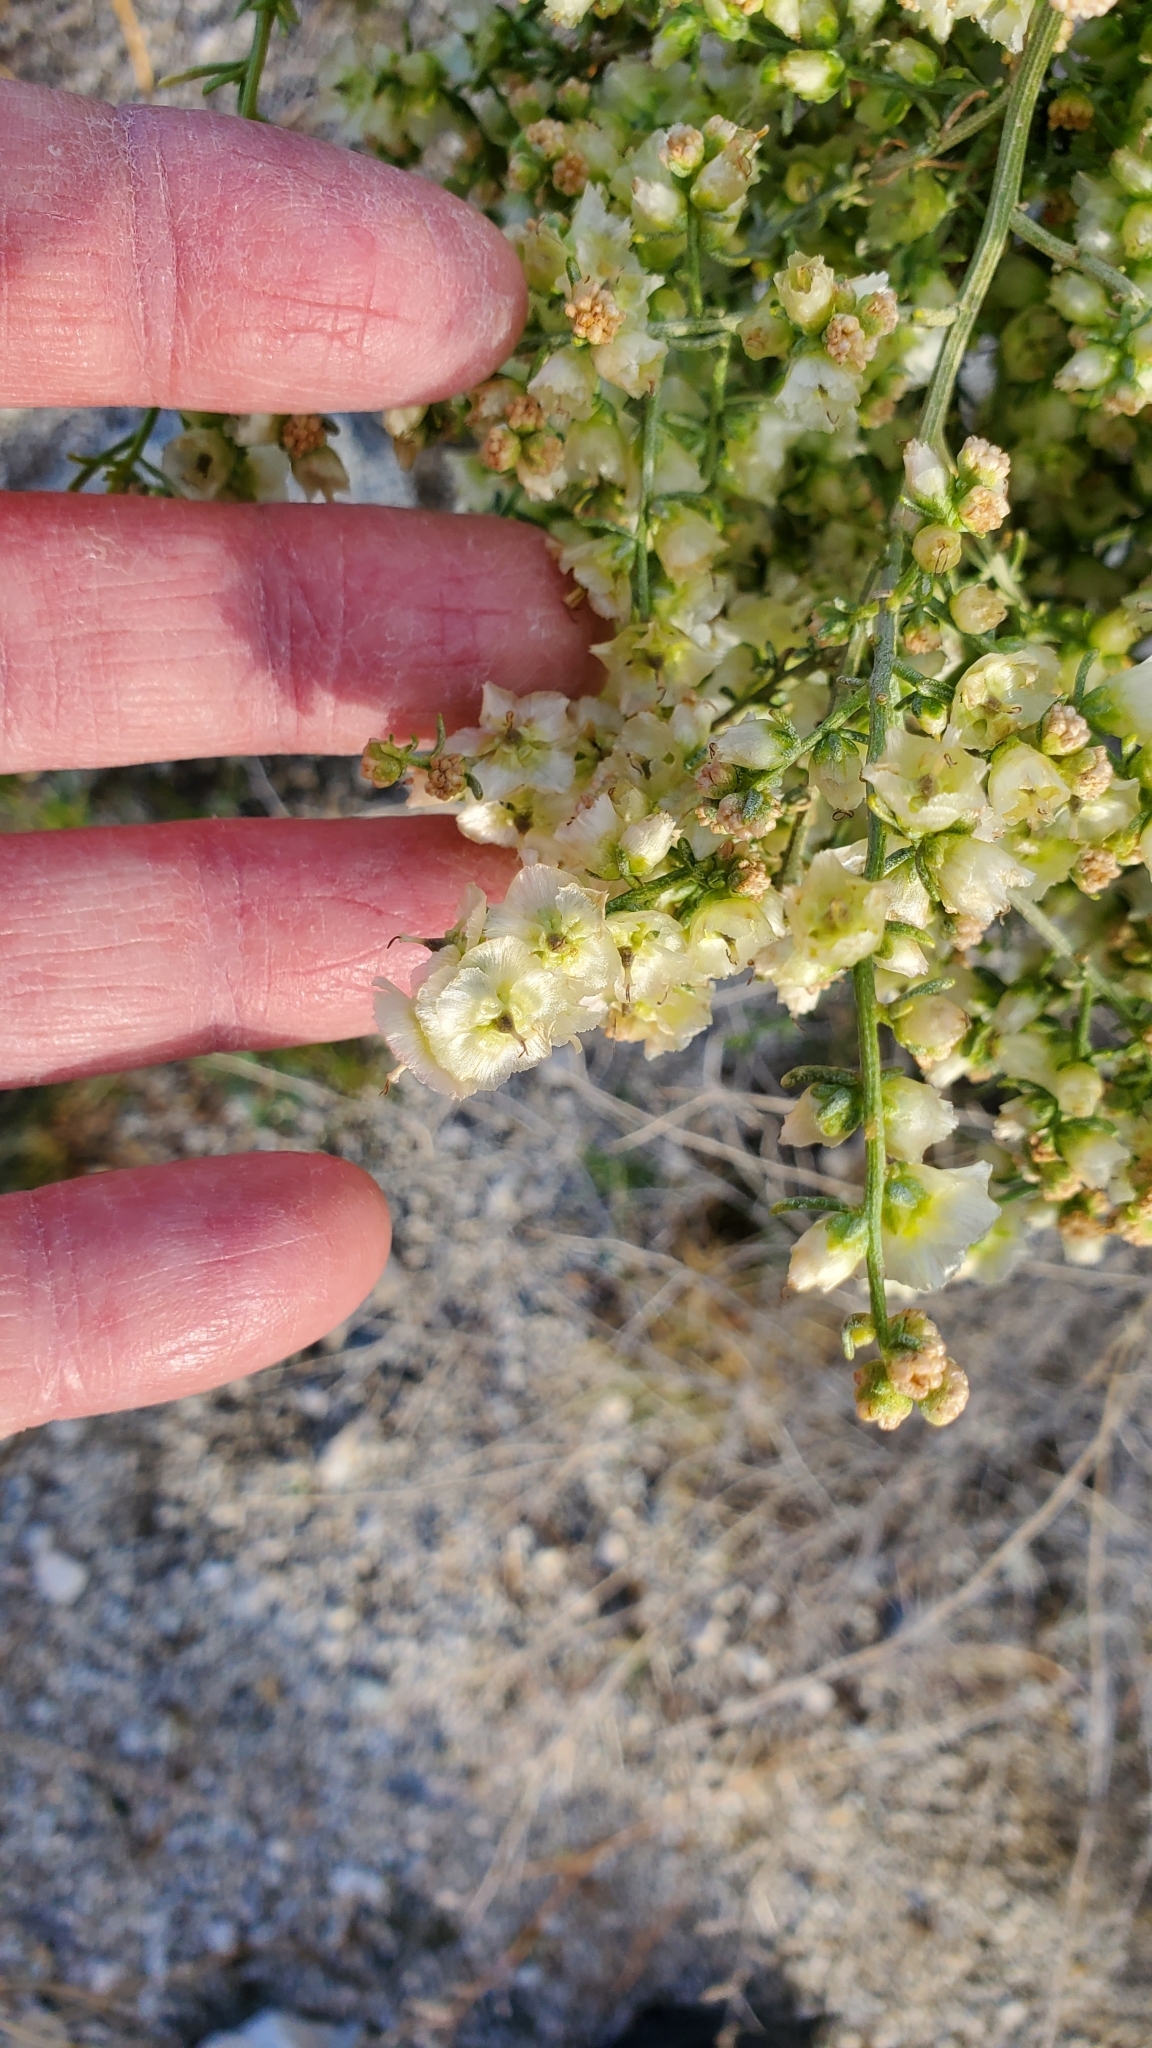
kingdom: Plantae
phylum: Tracheophyta
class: Magnoliopsida
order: Asterales
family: Asteraceae
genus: Ambrosia
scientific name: Ambrosia salsola
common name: Burrobrush
